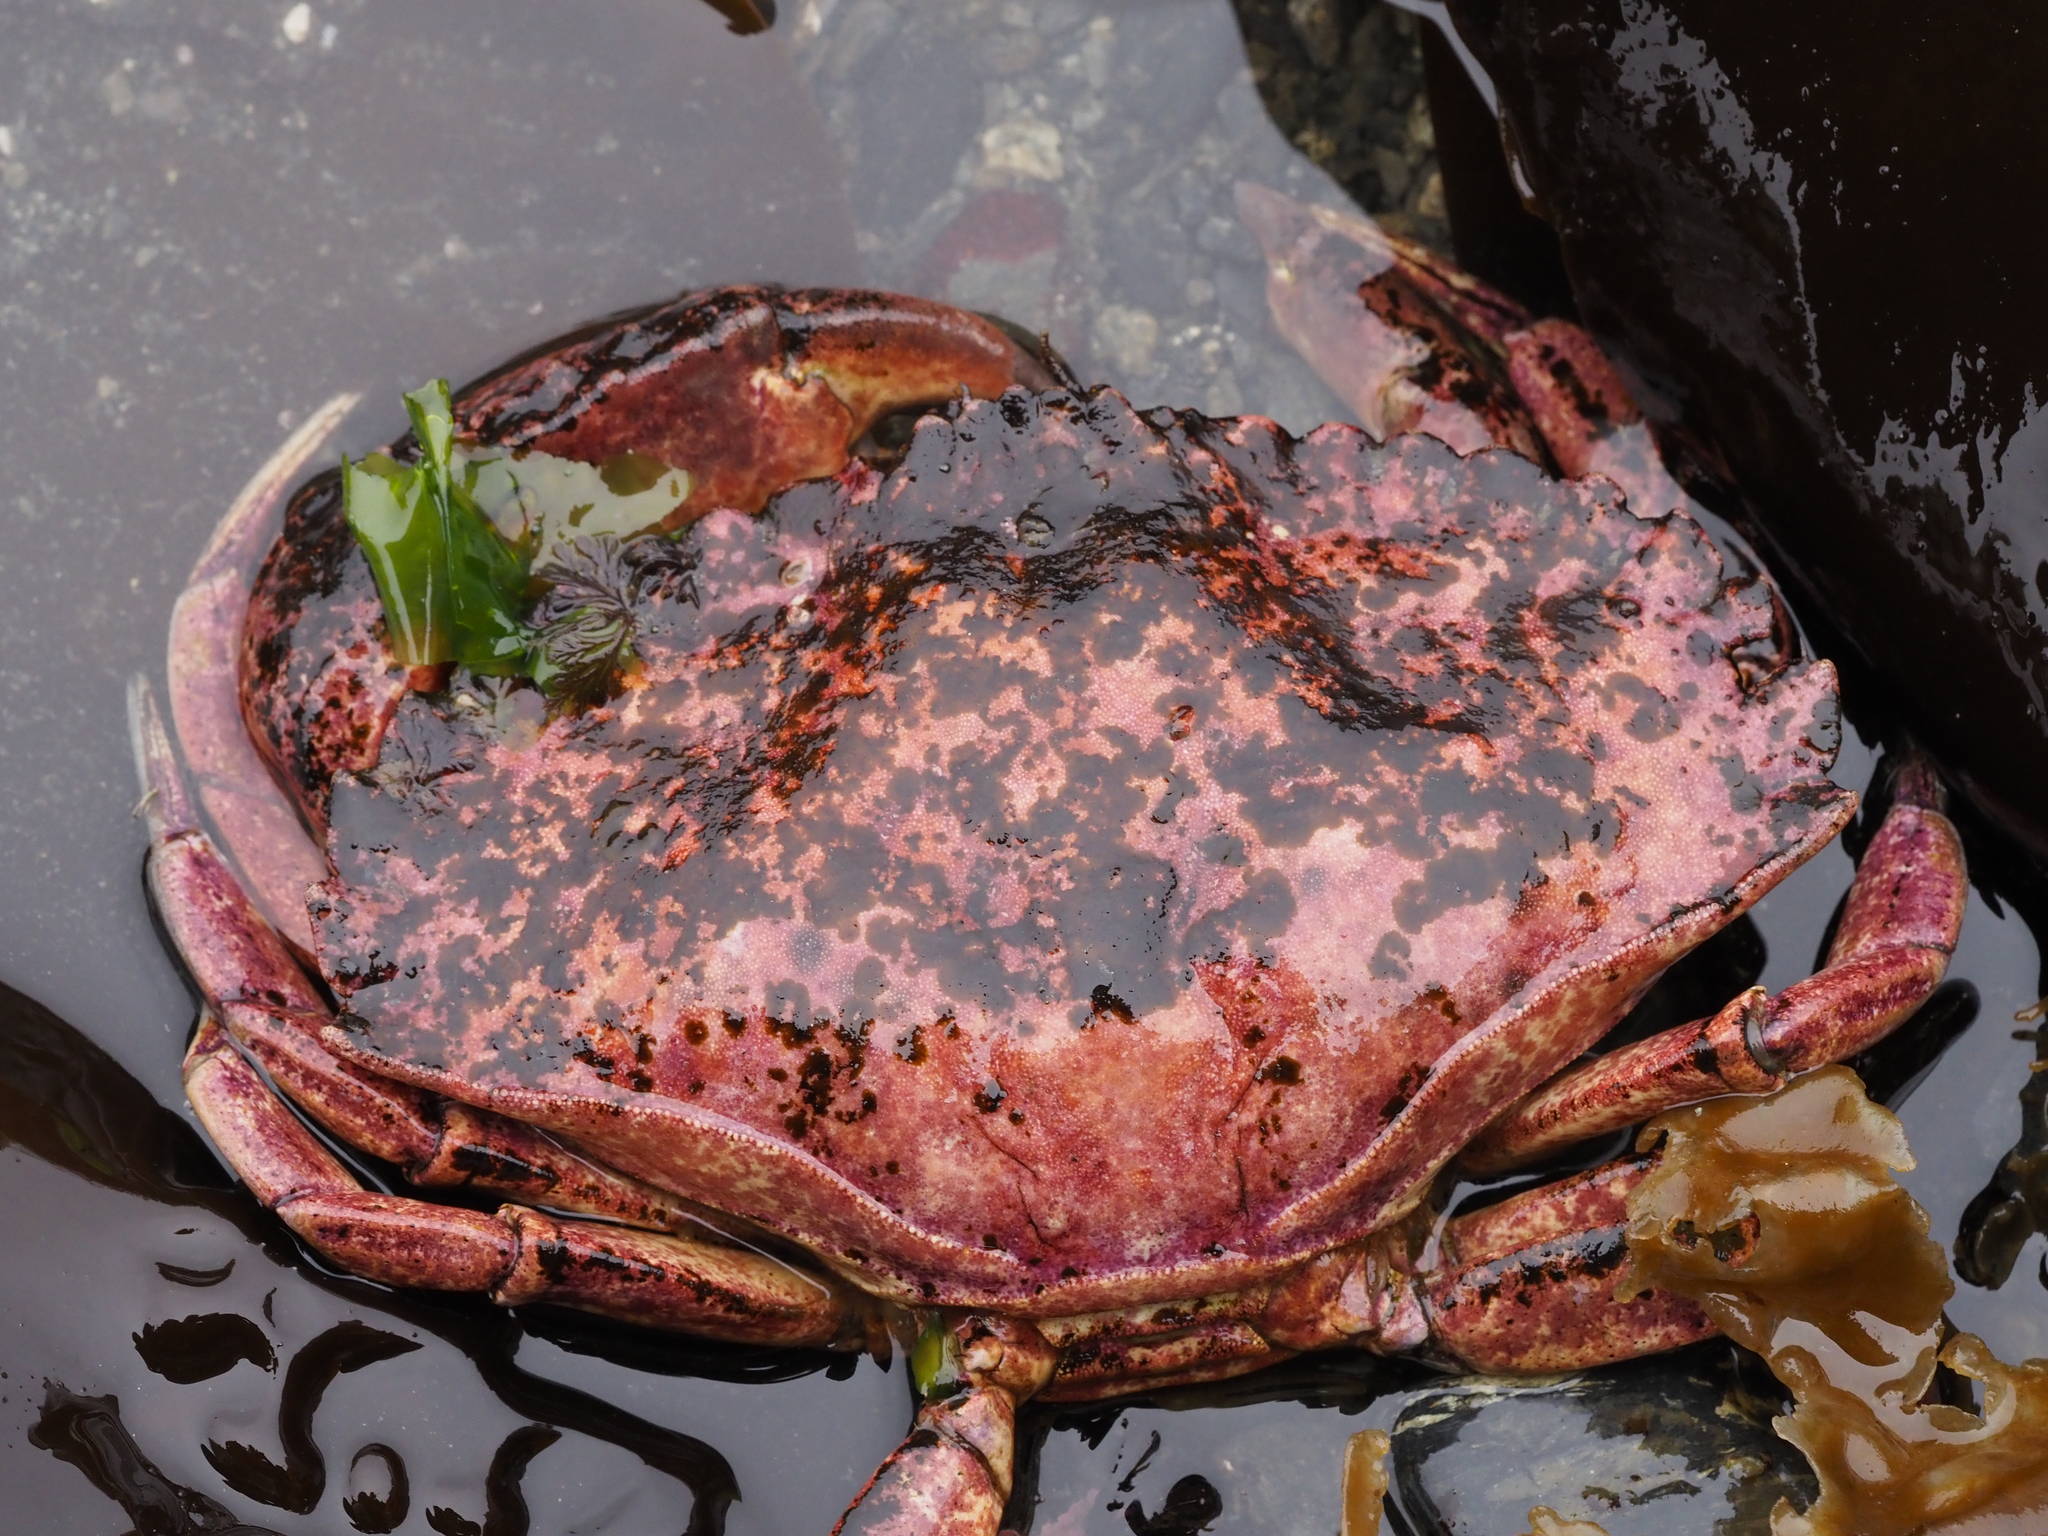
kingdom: Animalia
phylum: Arthropoda
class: Malacostraca
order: Decapoda
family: Cancridae
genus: Cancer
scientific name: Cancer productus
